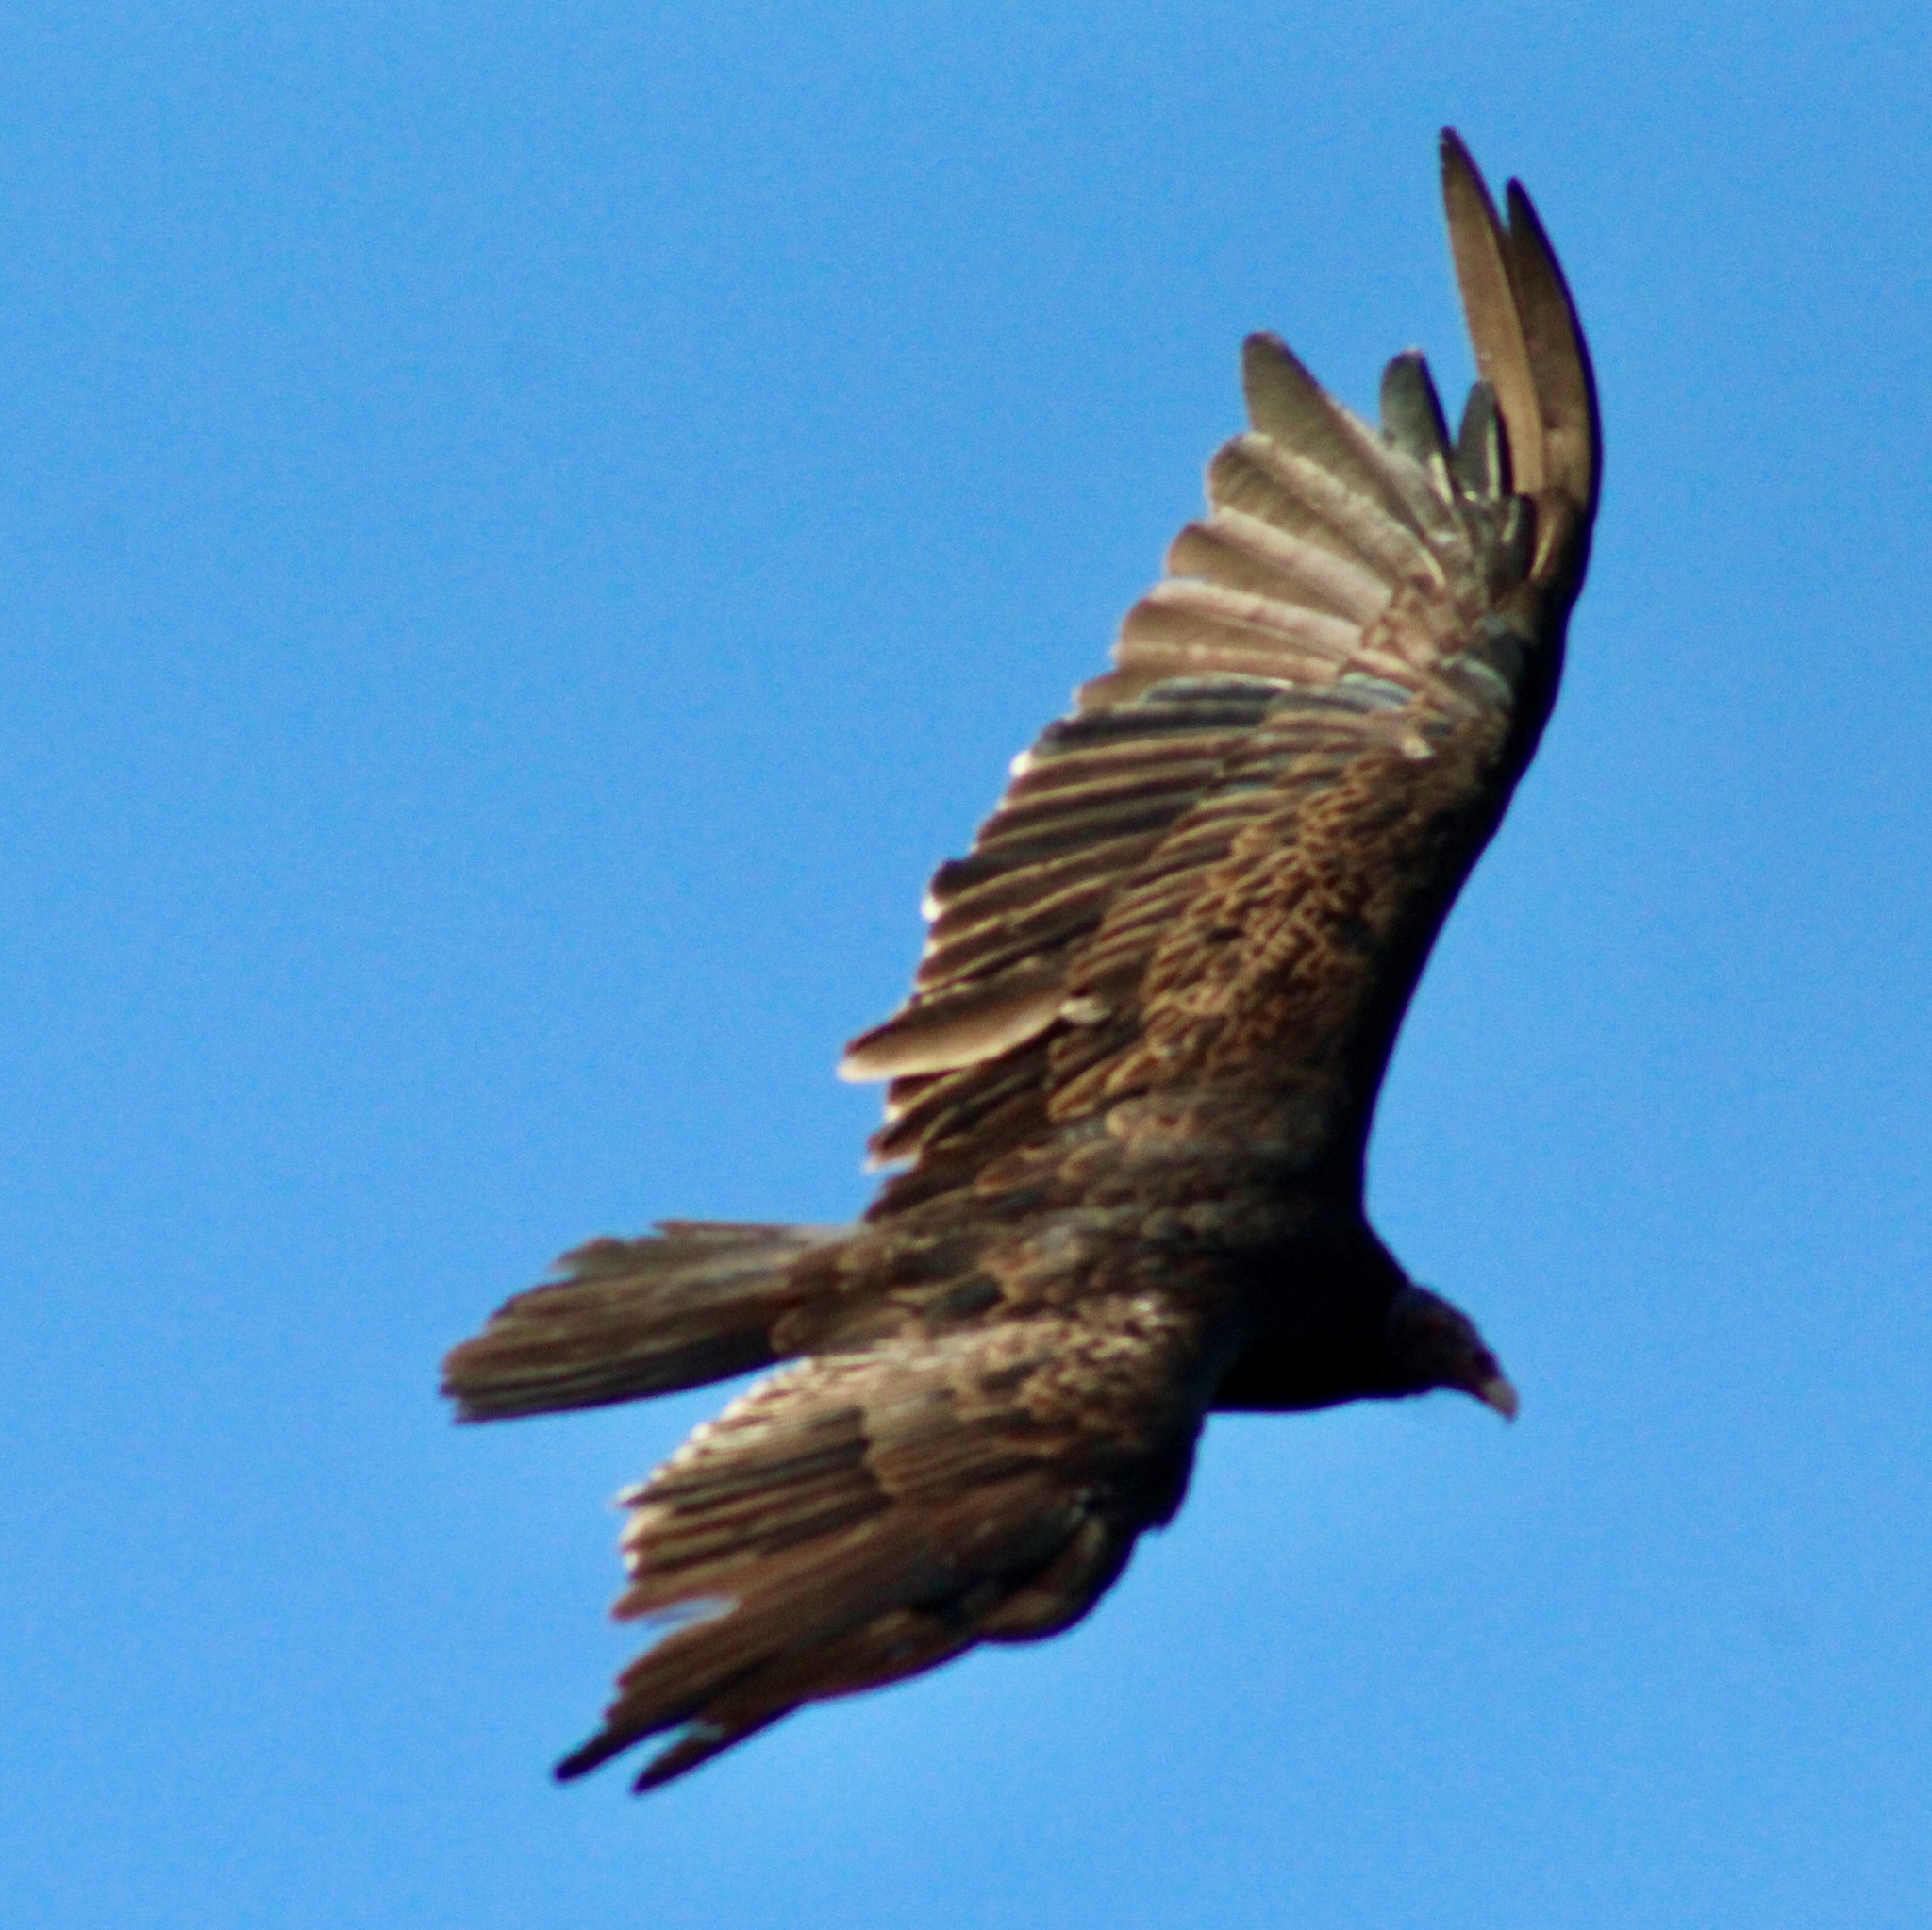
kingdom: Animalia
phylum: Chordata
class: Aves
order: Accipitriformes
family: Cathartidae
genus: Cathartes
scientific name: Cathartes aura
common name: Turkey vulture
